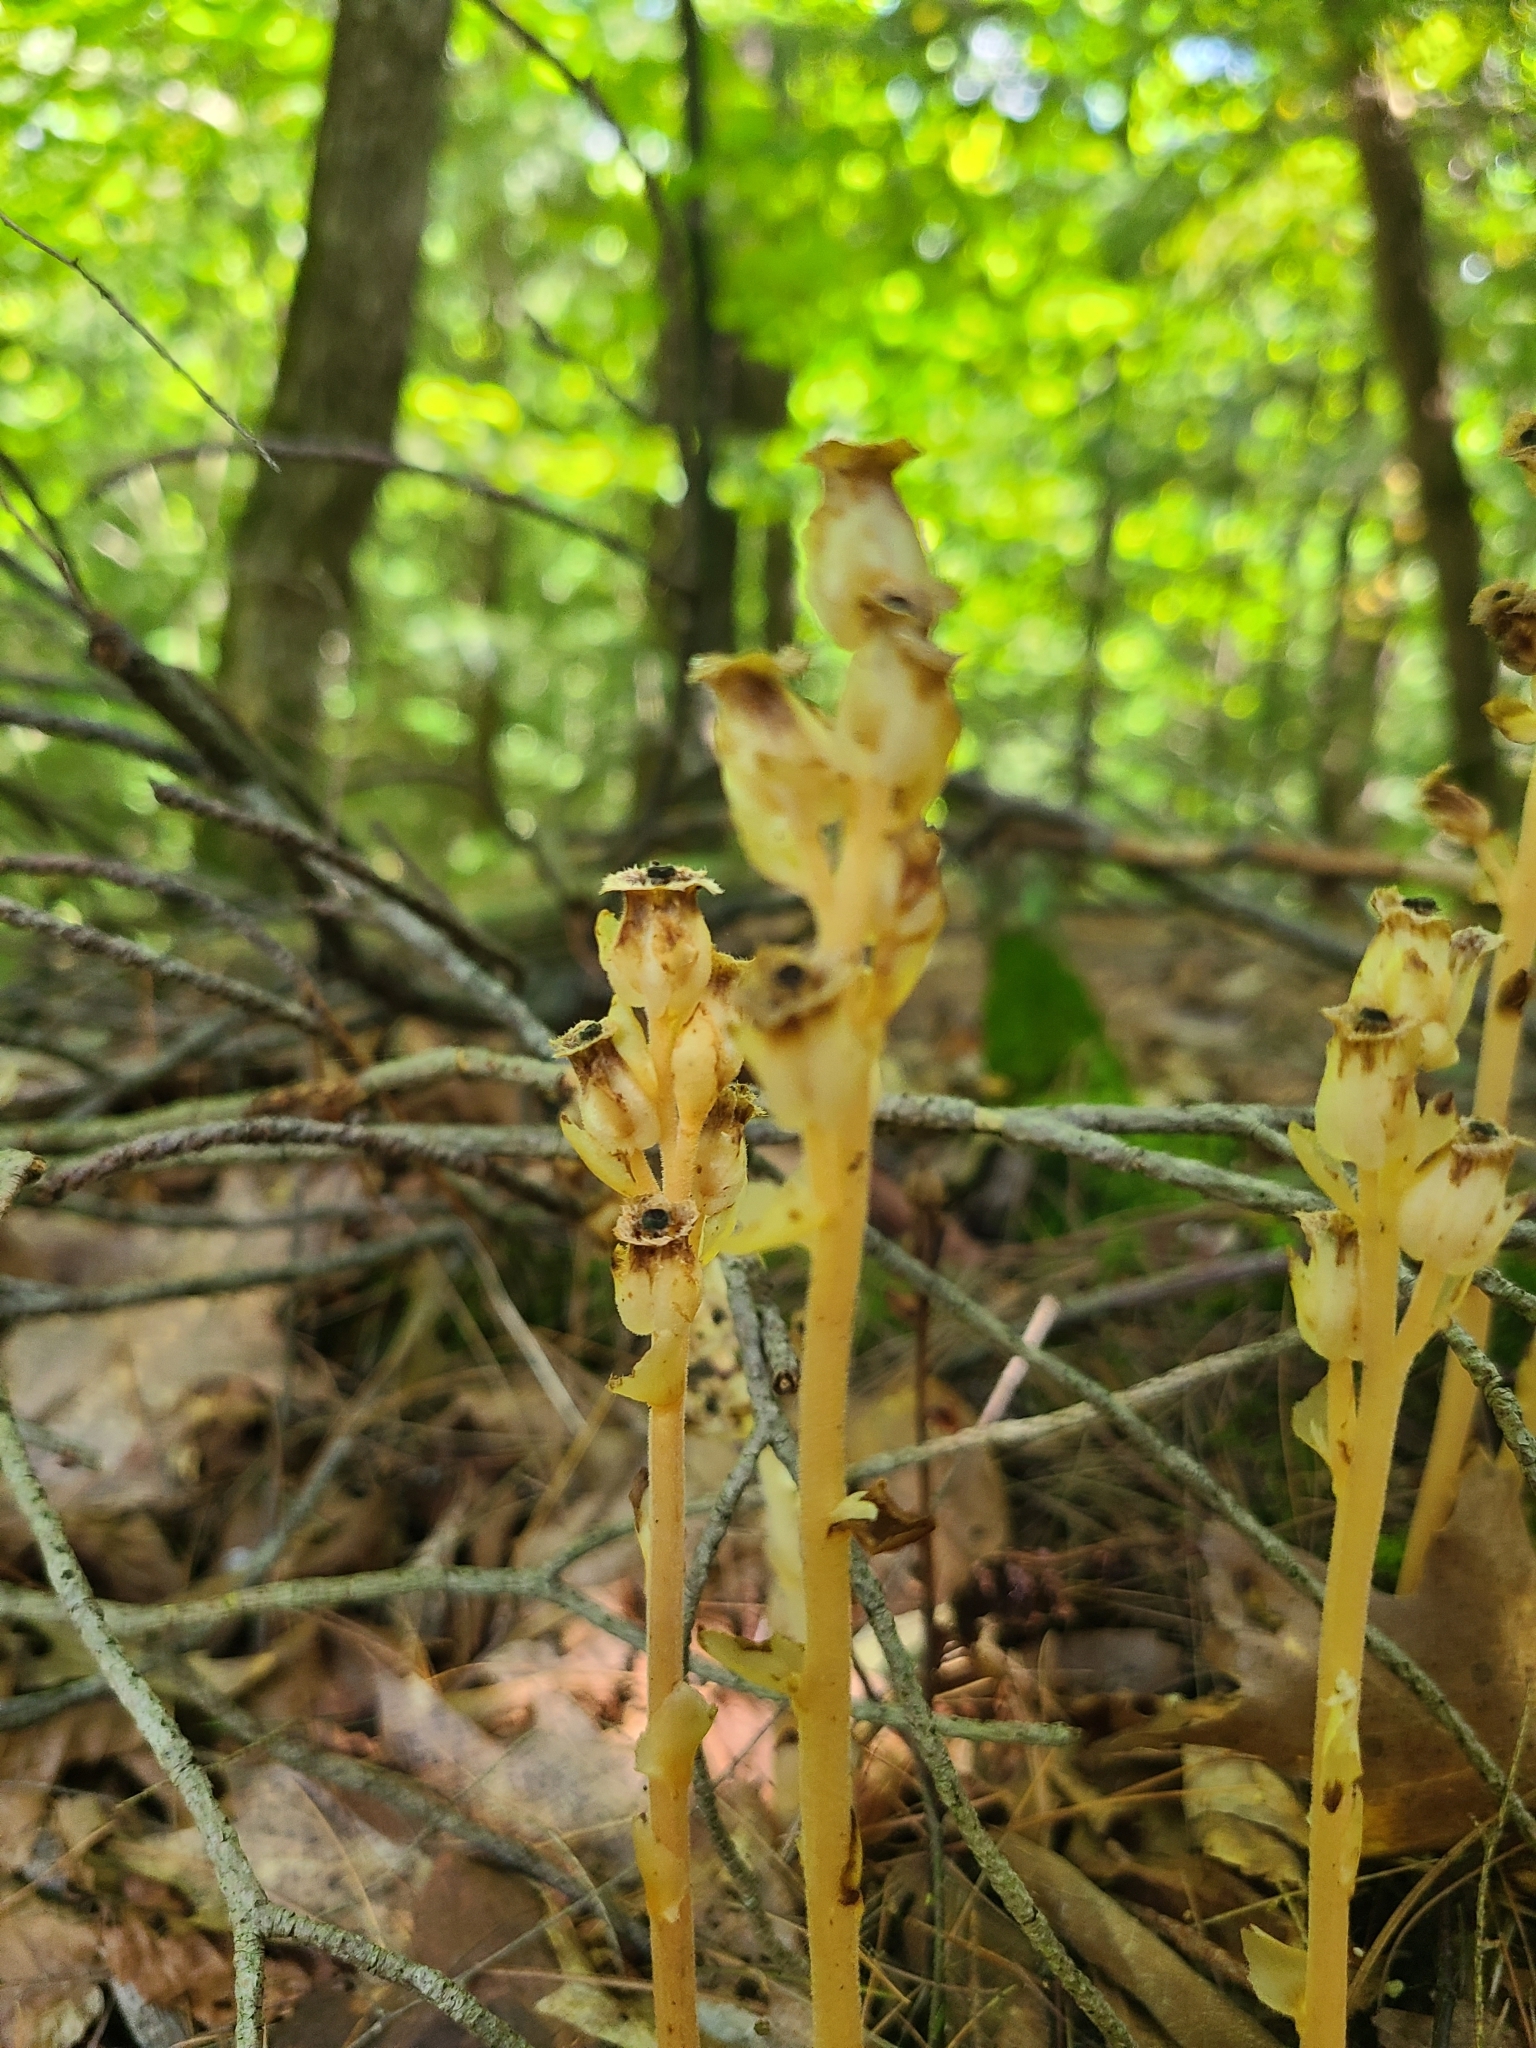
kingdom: Plantae
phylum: Tracheophyta
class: Magnoliopsida
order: Ericales
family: Ericaceae
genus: Hypopitys
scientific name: Hypopitys monotropa
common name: Yellow bird's-nest
